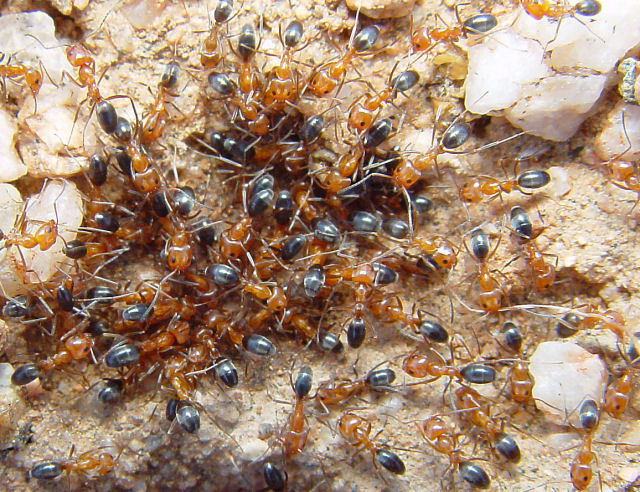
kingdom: Animalia
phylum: Arthropoda
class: Insecta
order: Hymenoptera
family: Formicidae
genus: Dorymyrmex
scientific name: Dorymyrmex bicolor
